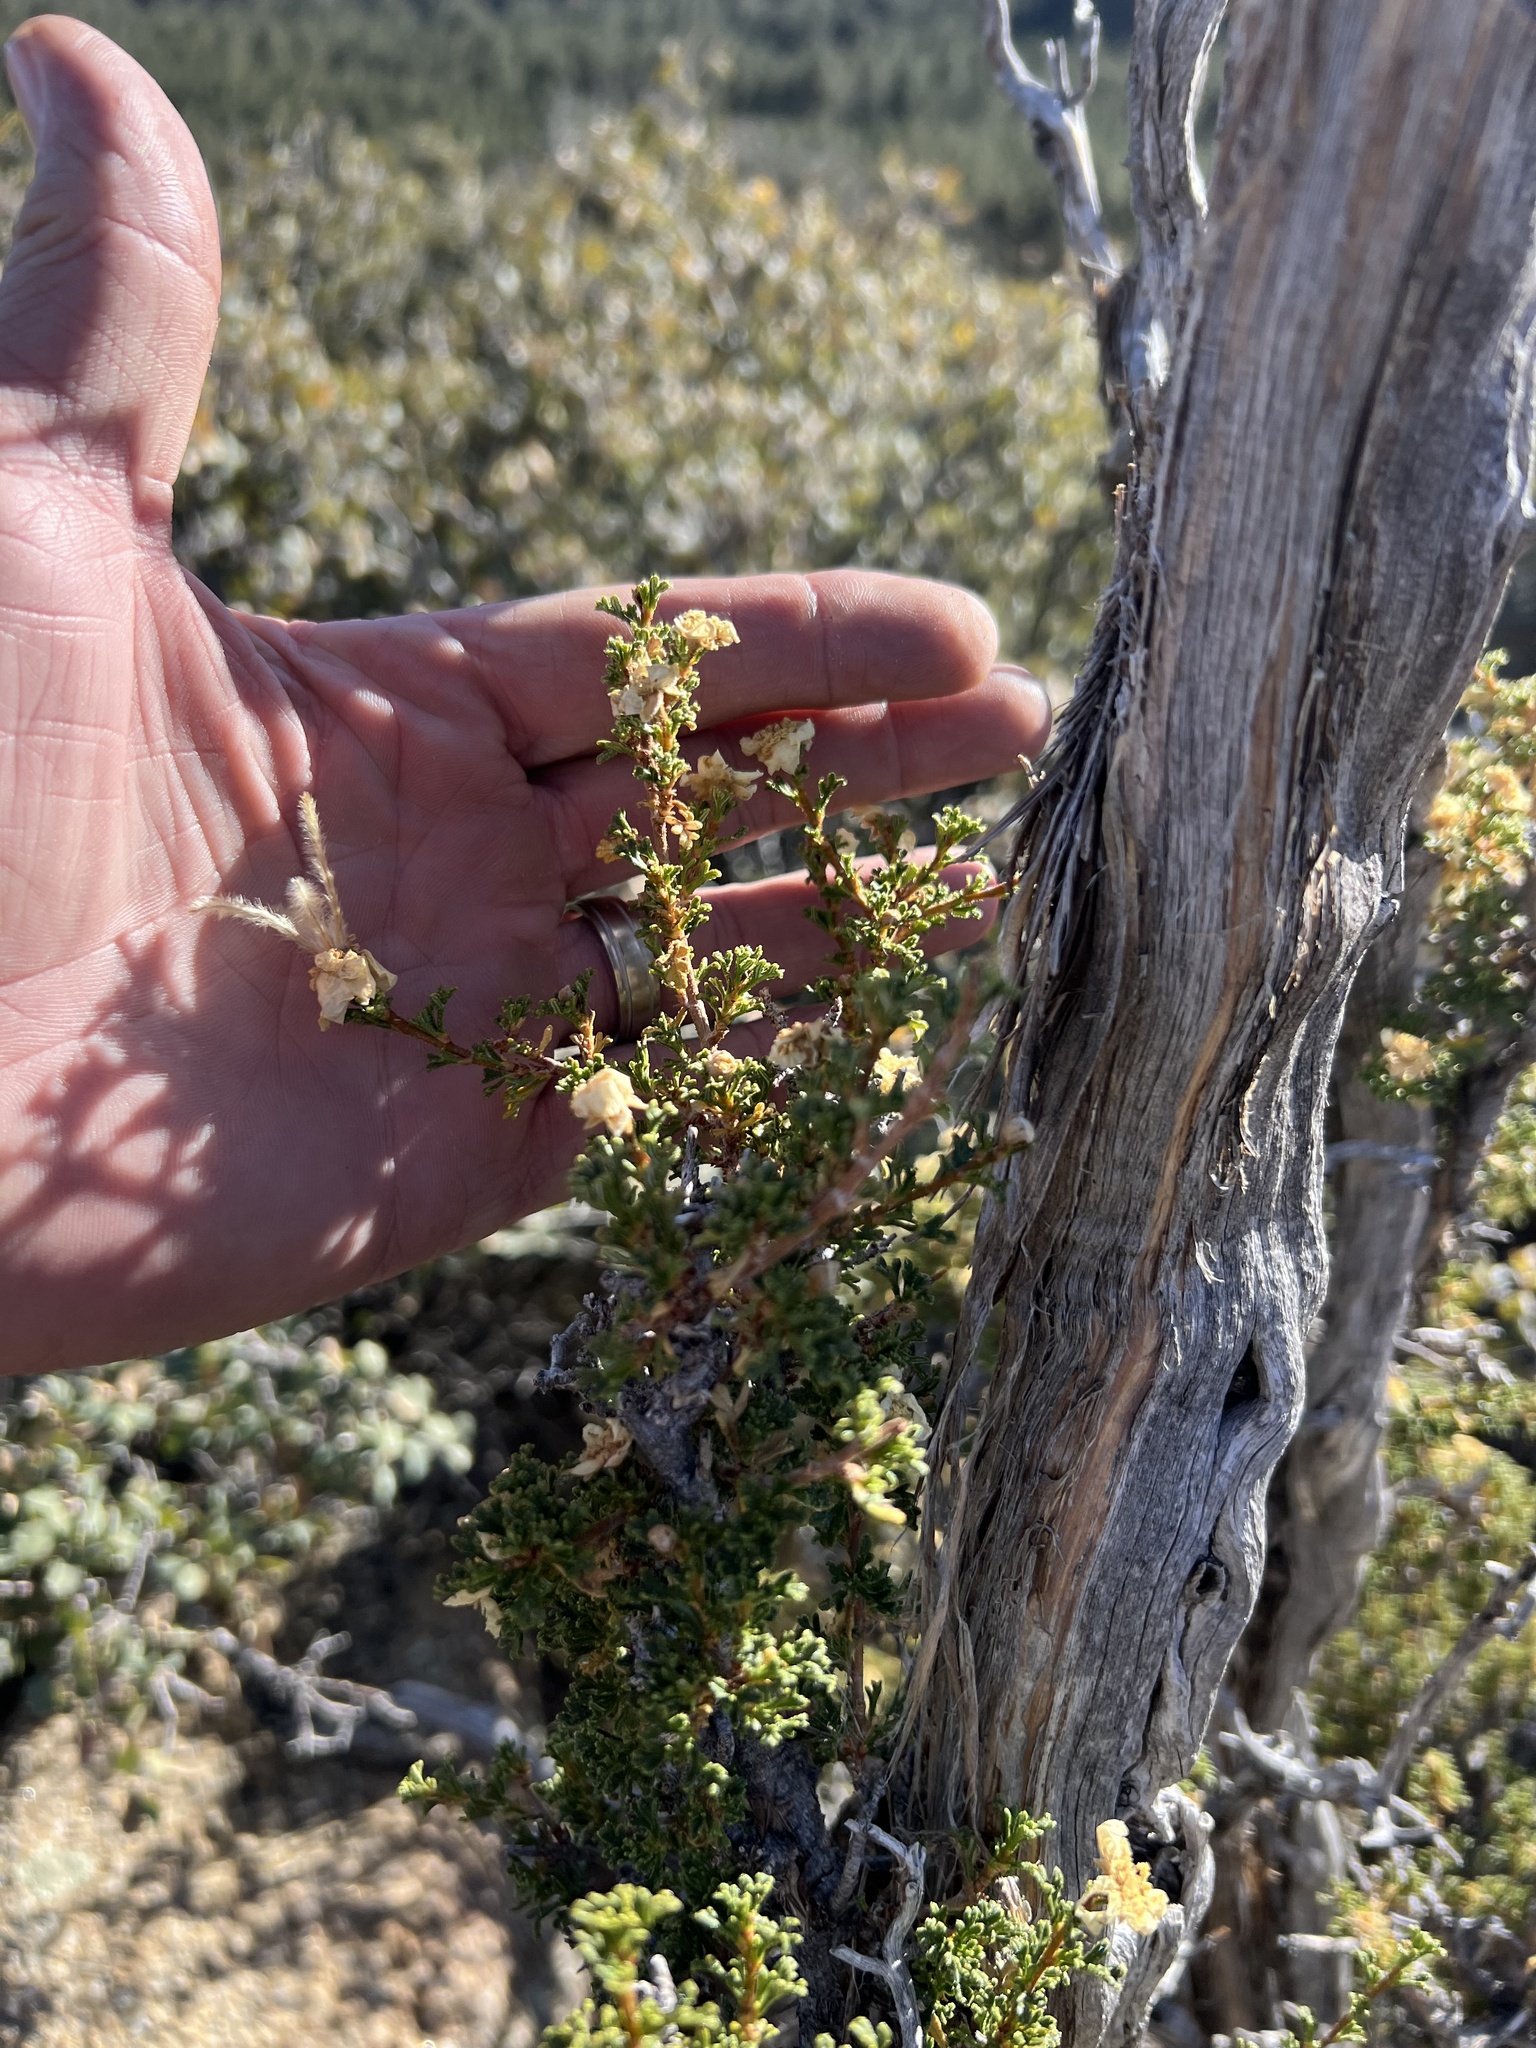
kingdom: Plantae
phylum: Tracheophyta
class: Magnoliopsida
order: Rosales
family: Rosaceae
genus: Purshia
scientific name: Purshia stansburiana
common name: Stansbury's cliffrose
